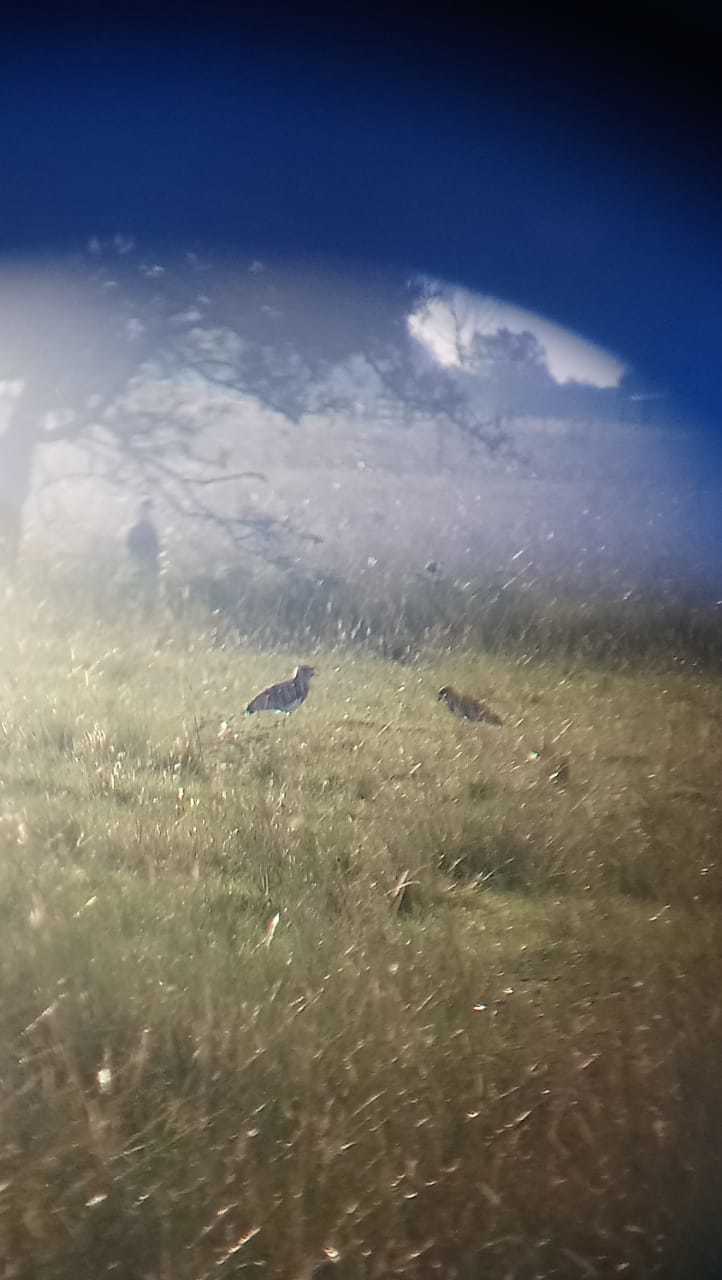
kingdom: Animalia
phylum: Chordata
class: Aves
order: Charadriiformes
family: Charadriidae
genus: Vanellus
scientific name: Vanellus chilensis
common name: Southern lapwing
